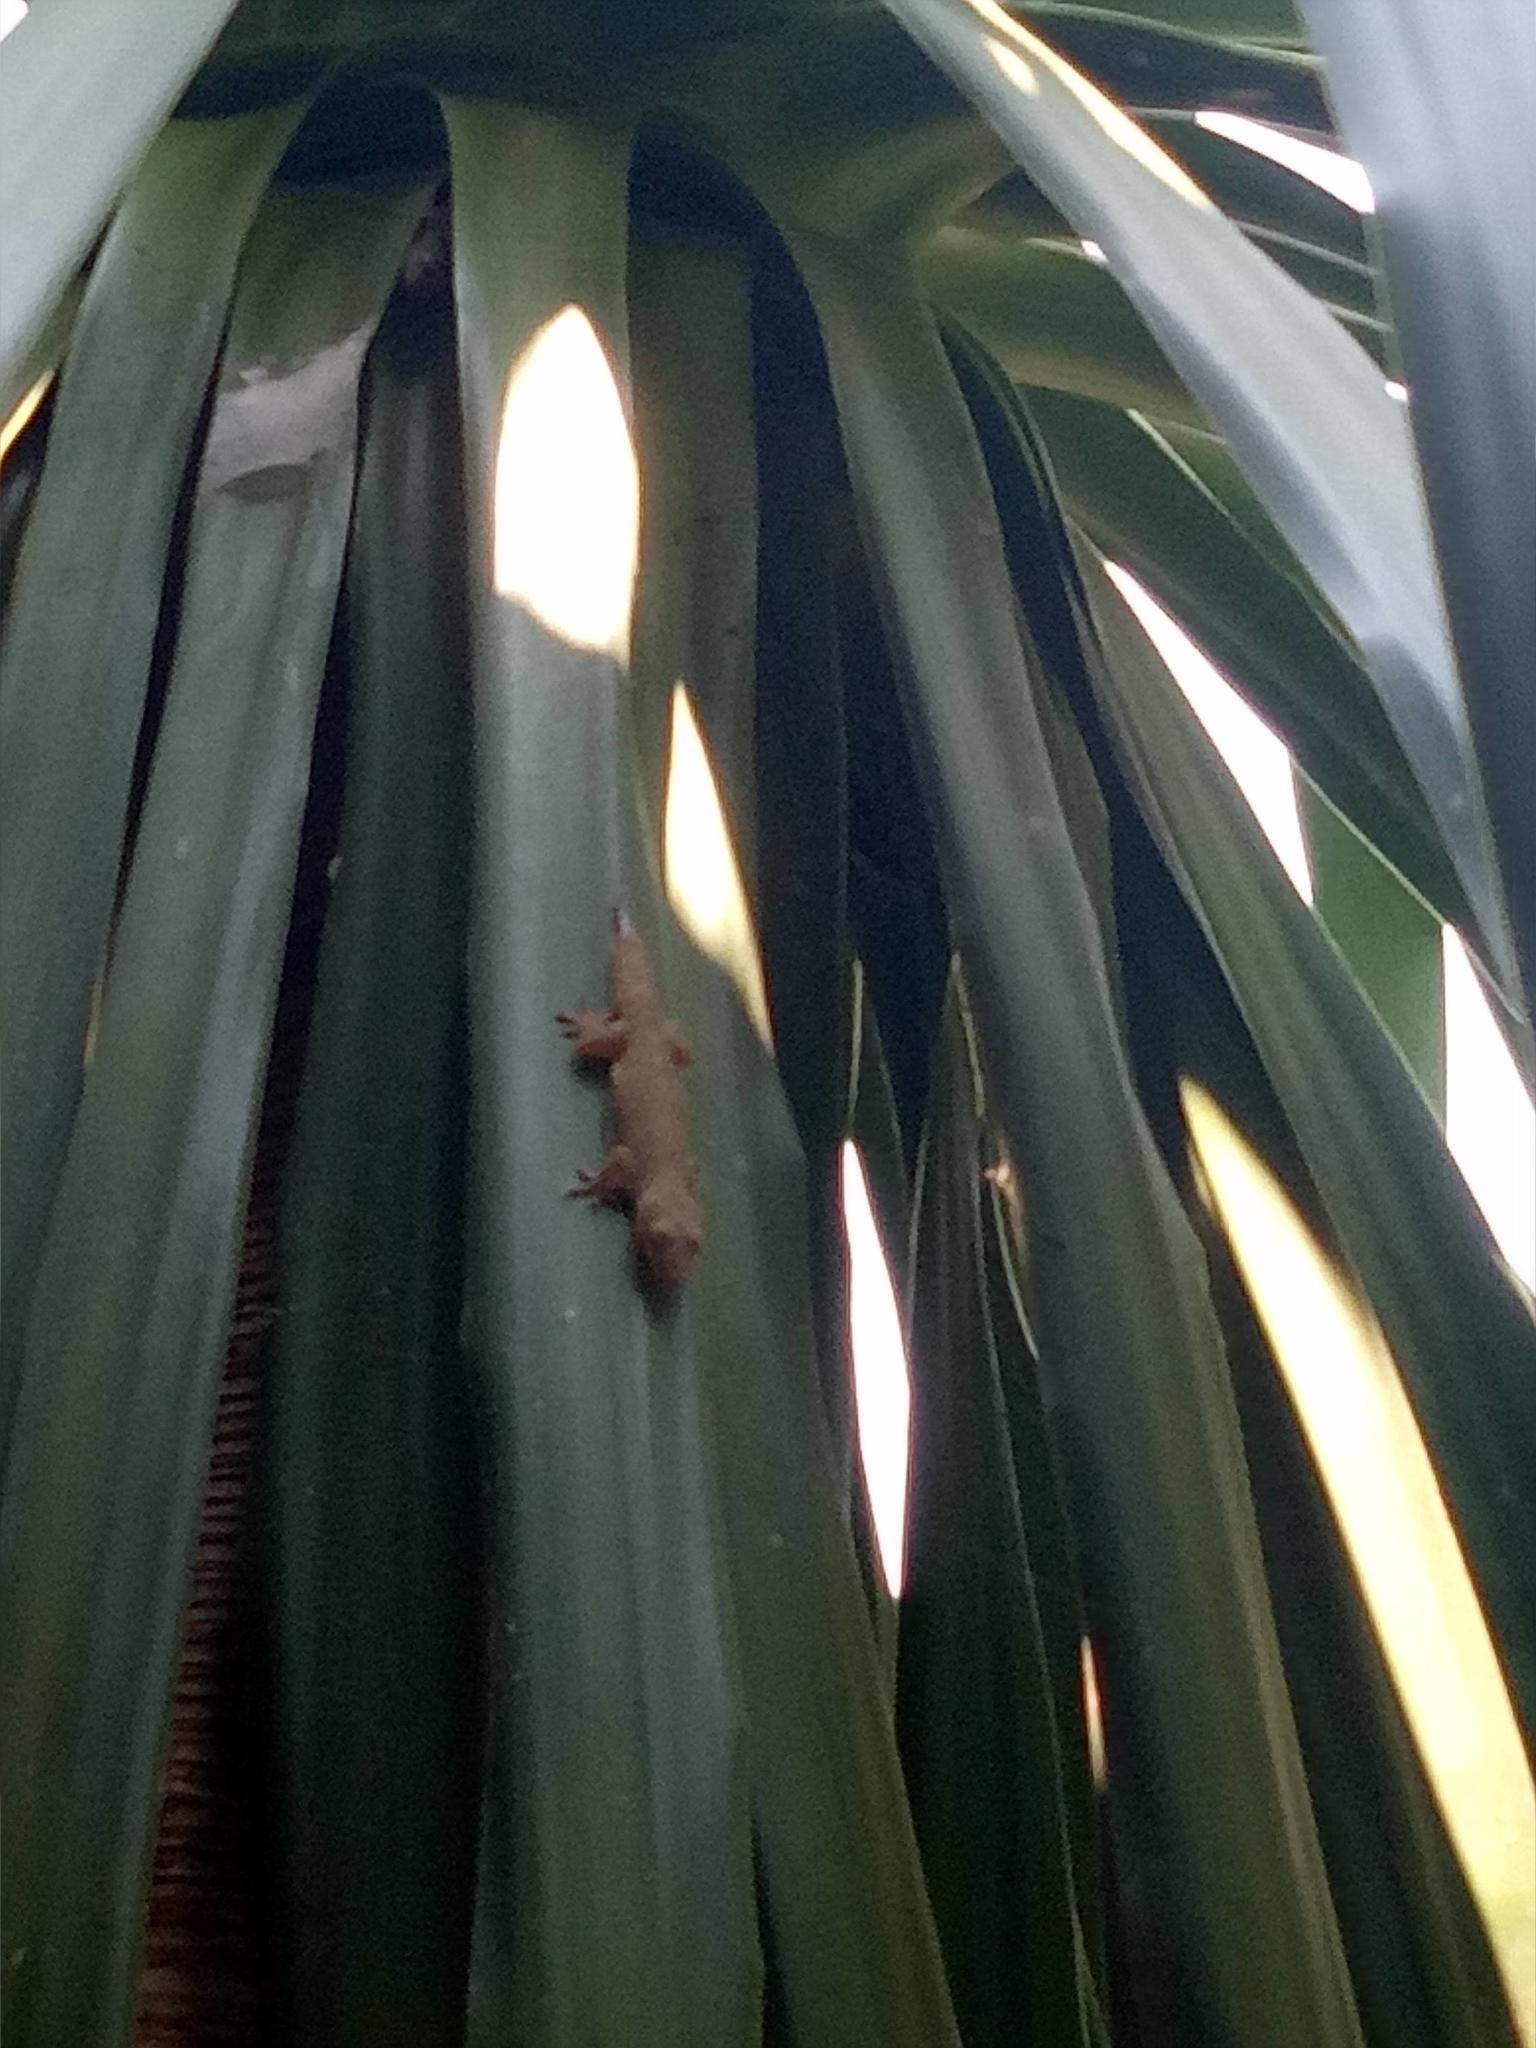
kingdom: Animalia
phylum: Chordata
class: Squamata
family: Gekkonidae
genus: Hemidactylus
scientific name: Hemidactylus frenatus
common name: Common house gecko
